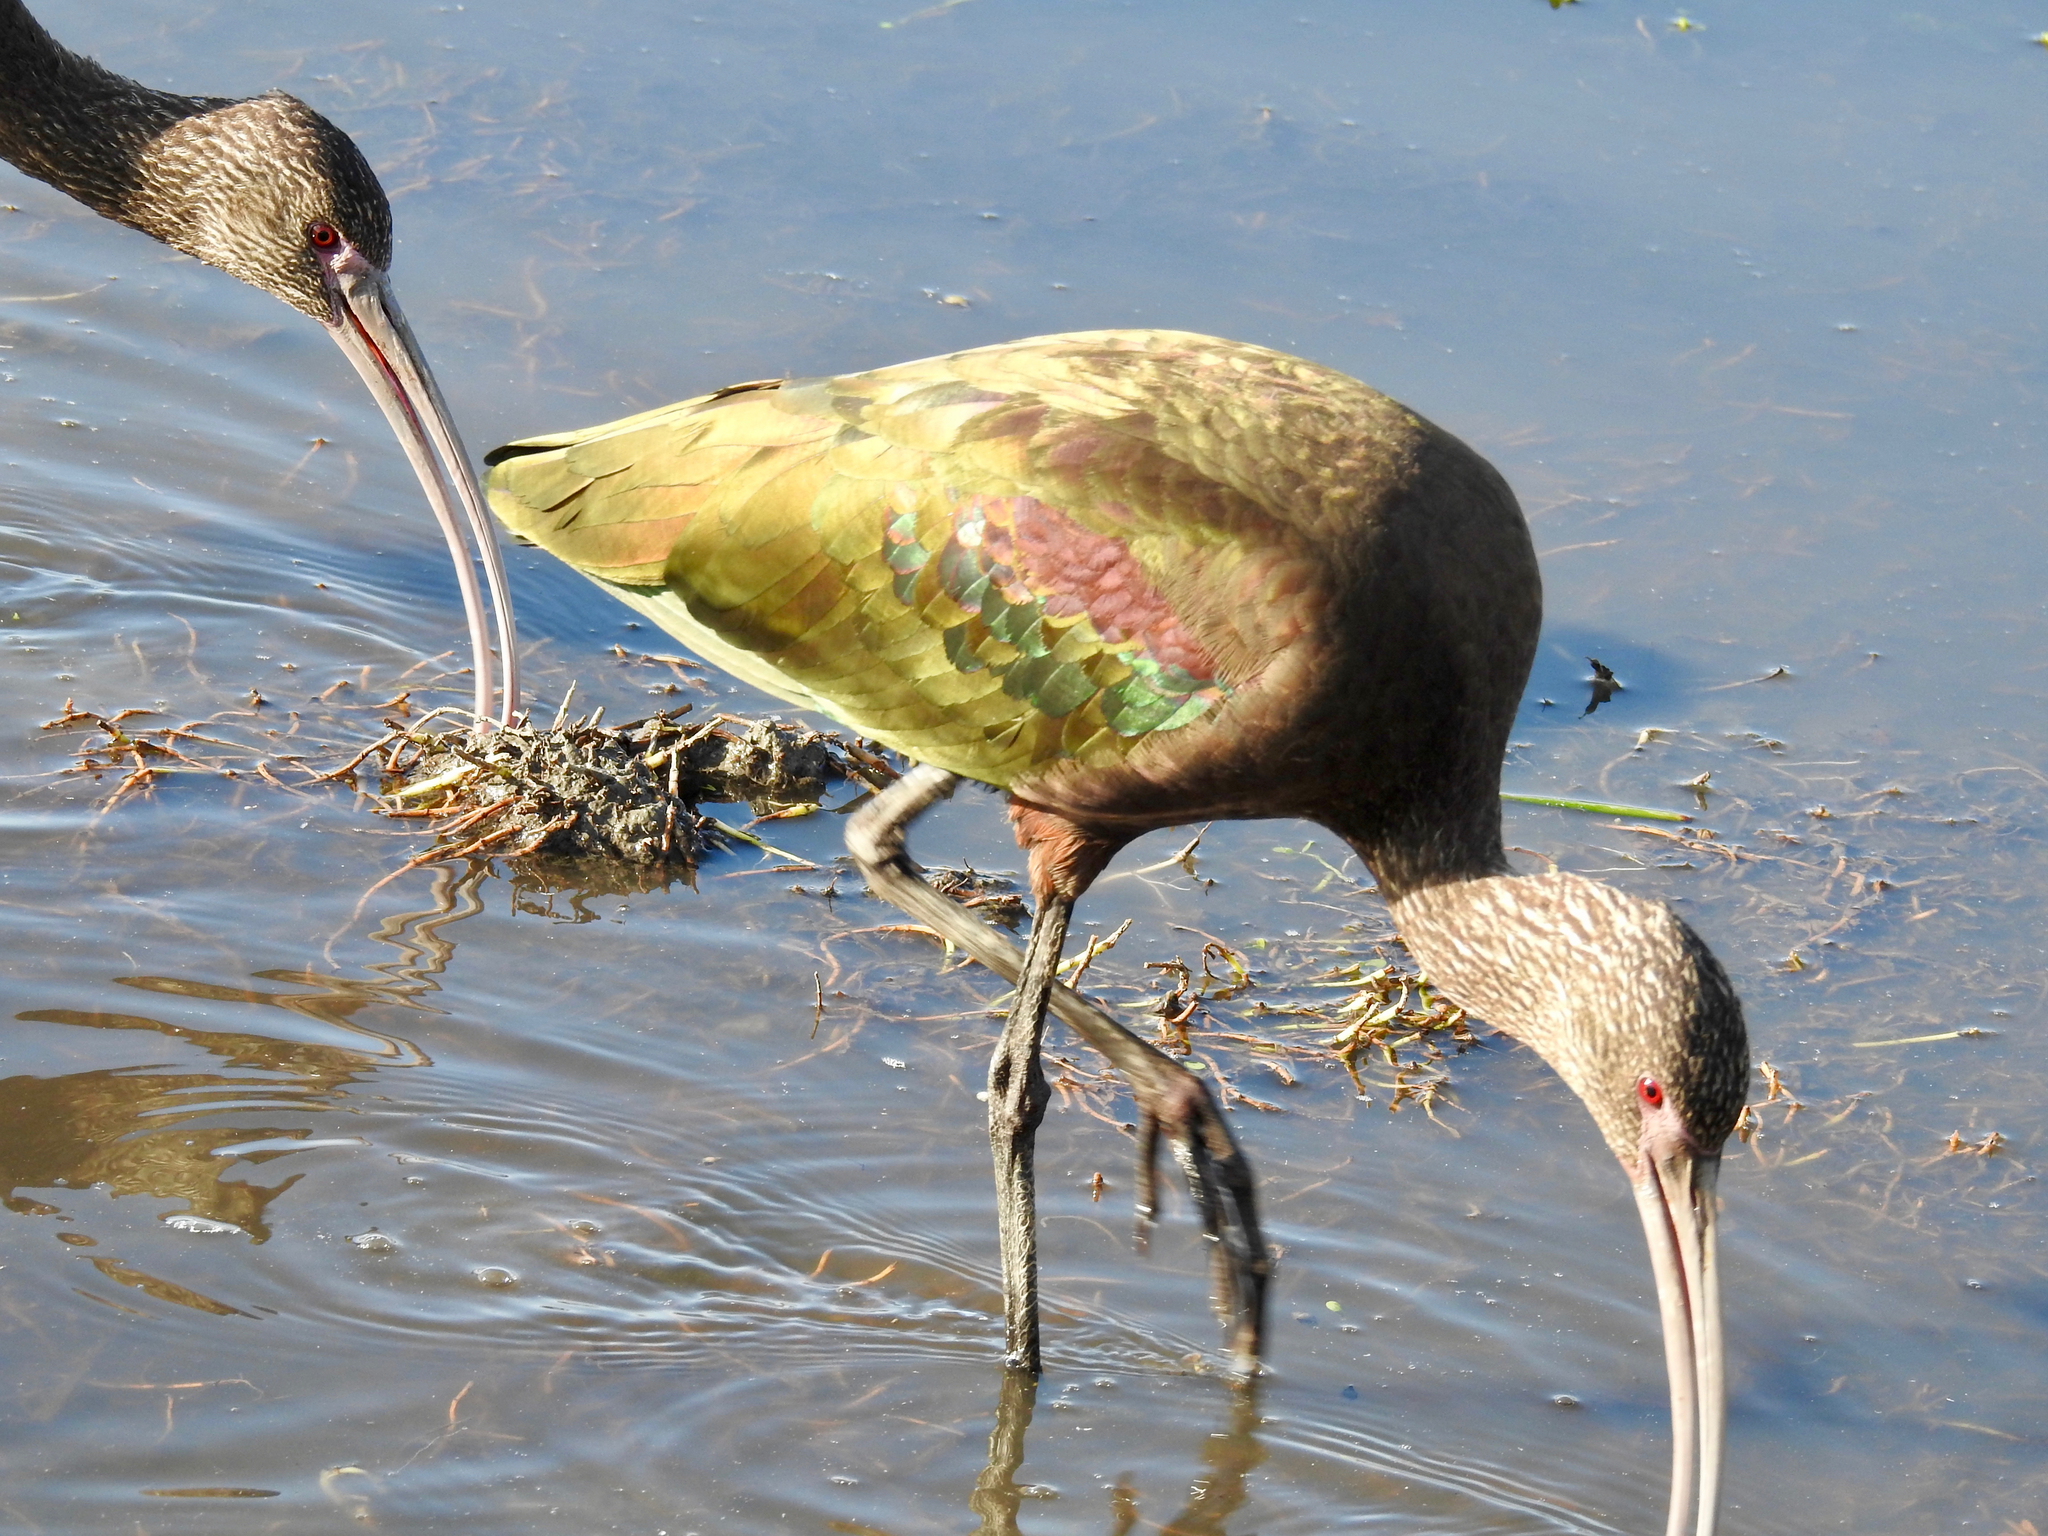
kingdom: Animalia
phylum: Chordata
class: Aves
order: Pelecaniformes
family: Threskiornithidae
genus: Plegadis
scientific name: Plegadis chihi
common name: White-faced ibis
